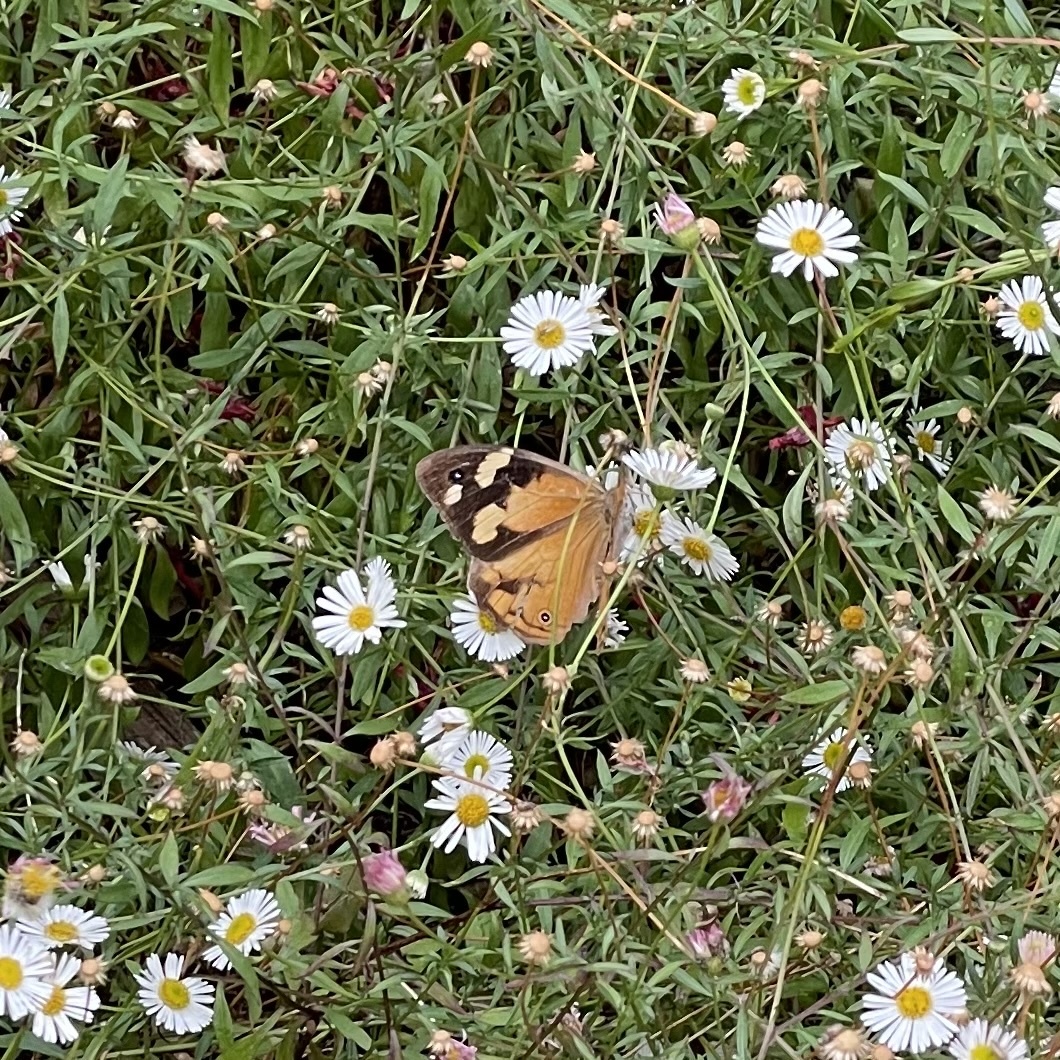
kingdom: Animalia
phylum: Arthropoda
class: Insecta
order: Lepidoptera
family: Nymphalidae
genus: Heteronympha
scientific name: Heteronympha merope
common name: Common brown
